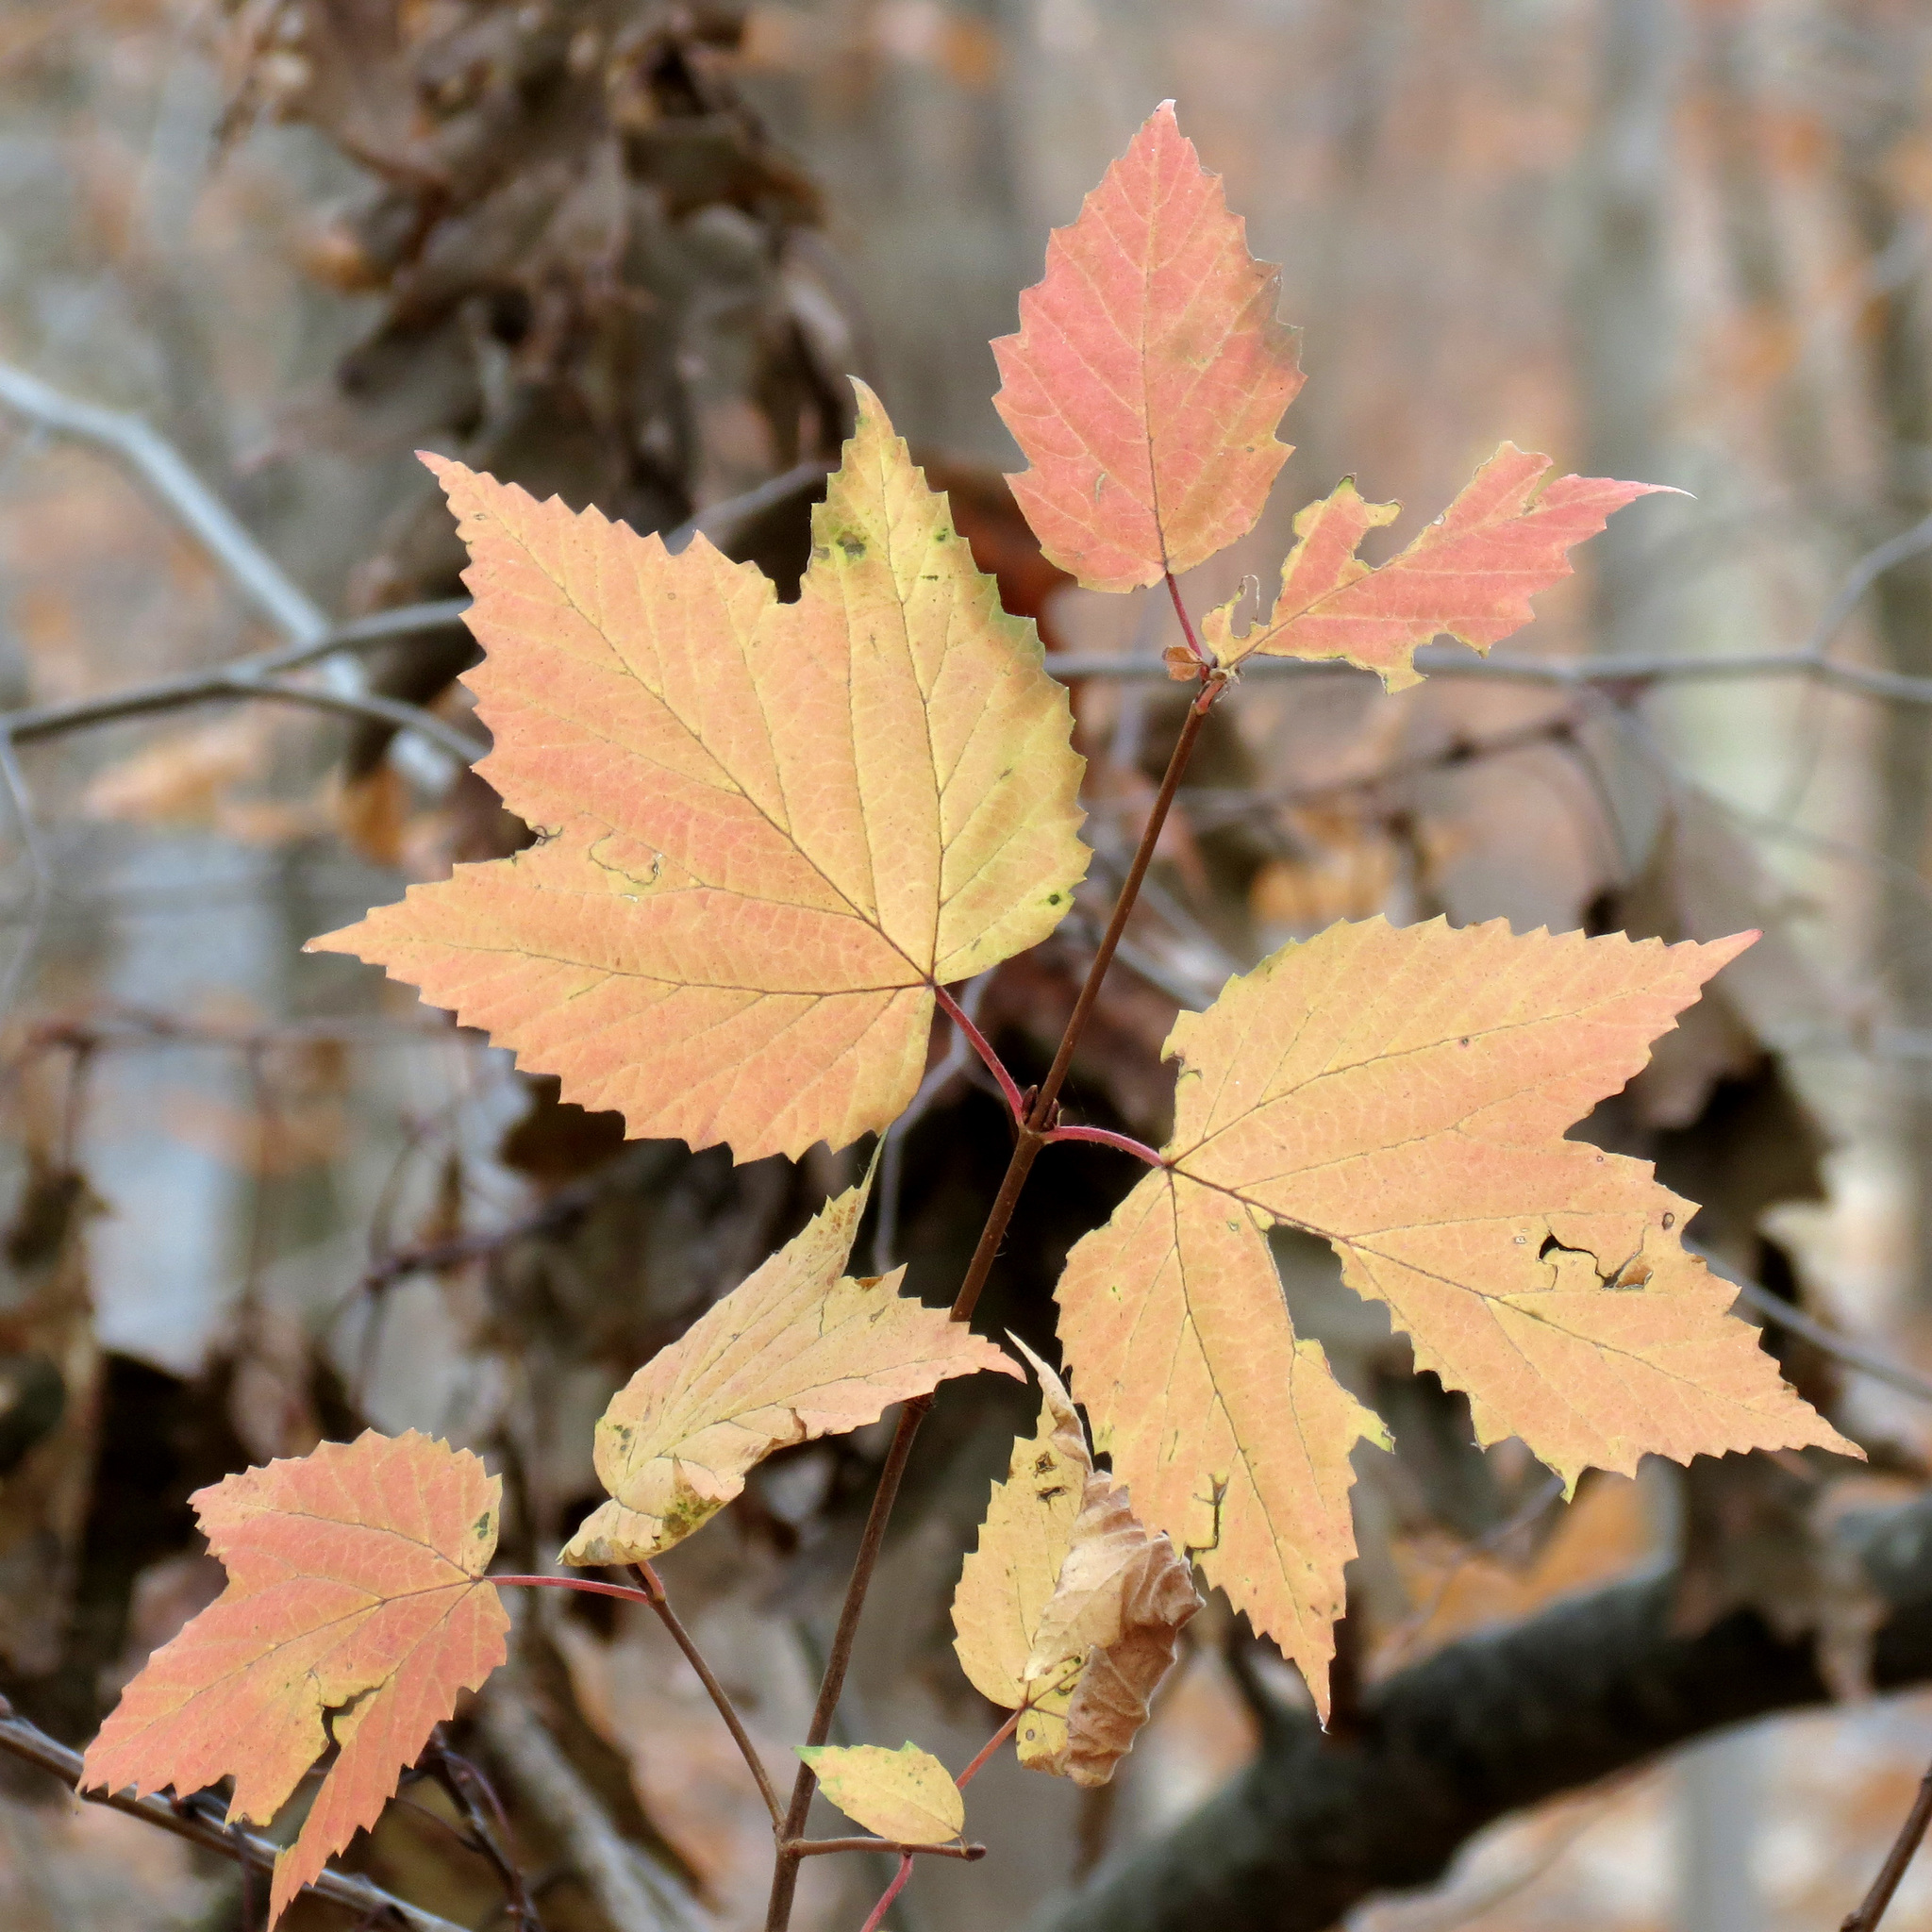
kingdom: Plantae
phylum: Tracheophyta
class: Magnoliopsida
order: Dipsacales
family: Viburnaceae
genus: Viburnum
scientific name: Viburnum acerifolium
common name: Dockmackie
